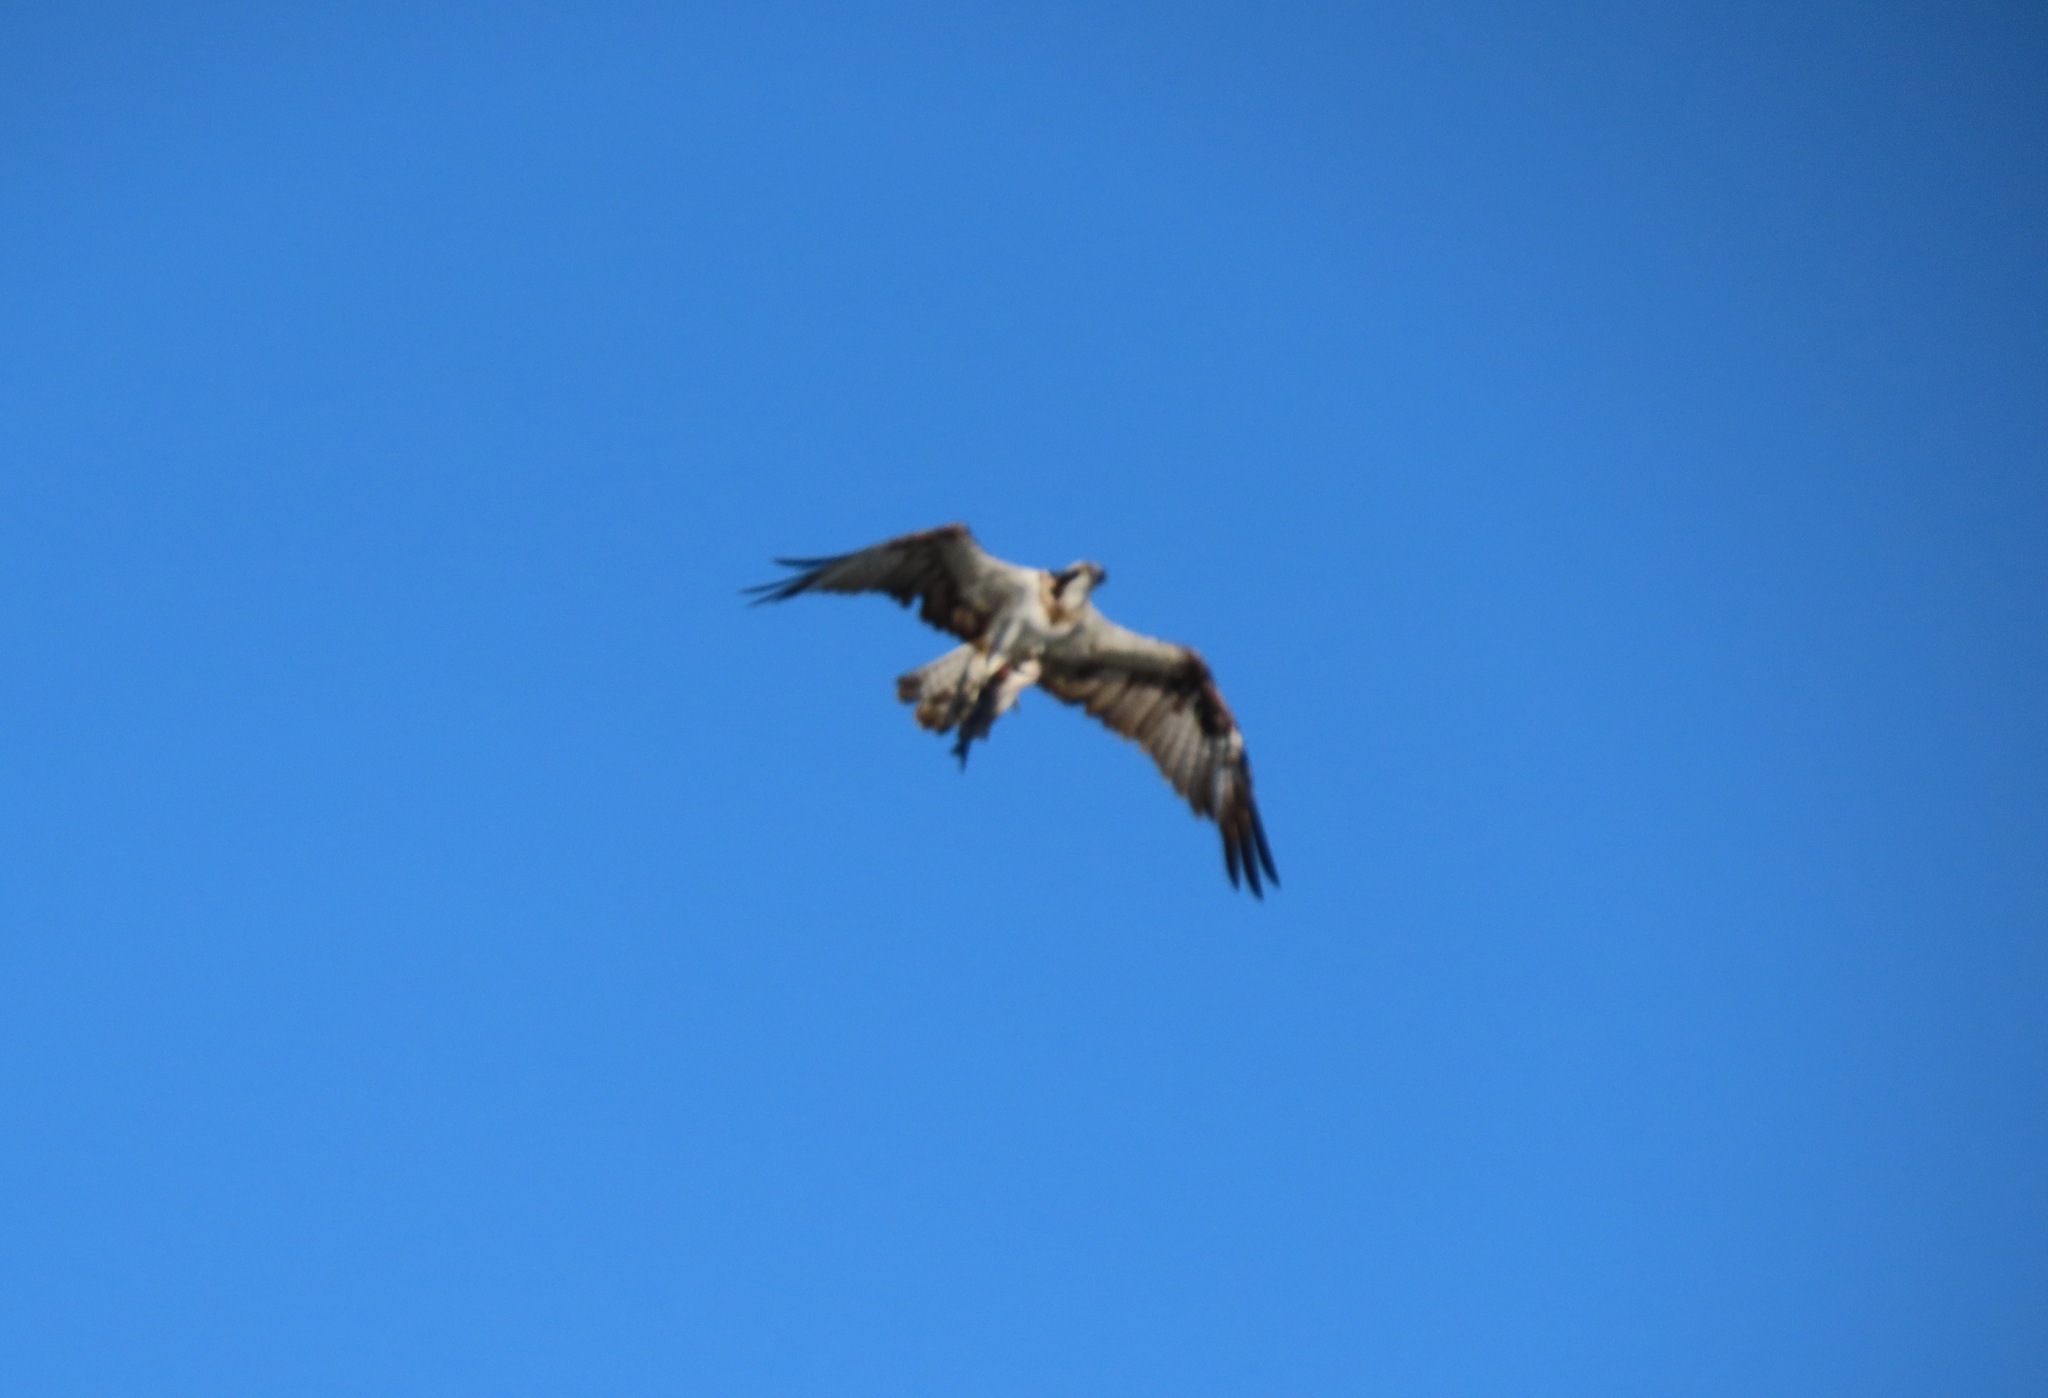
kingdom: Animalia
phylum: Chordata
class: Aves
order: Accipitriformes
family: Pandionidae
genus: Pandion
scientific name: Pandion haliaetus
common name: Osprey
